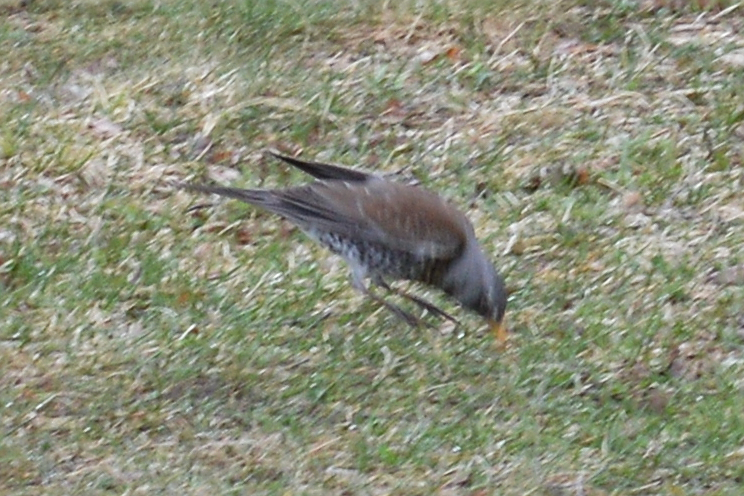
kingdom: Animalia
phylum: Chordata
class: Aves
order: Passeriformes
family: Turdidae
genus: Turdus
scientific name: Turdus pilaris
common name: Fieldfare
